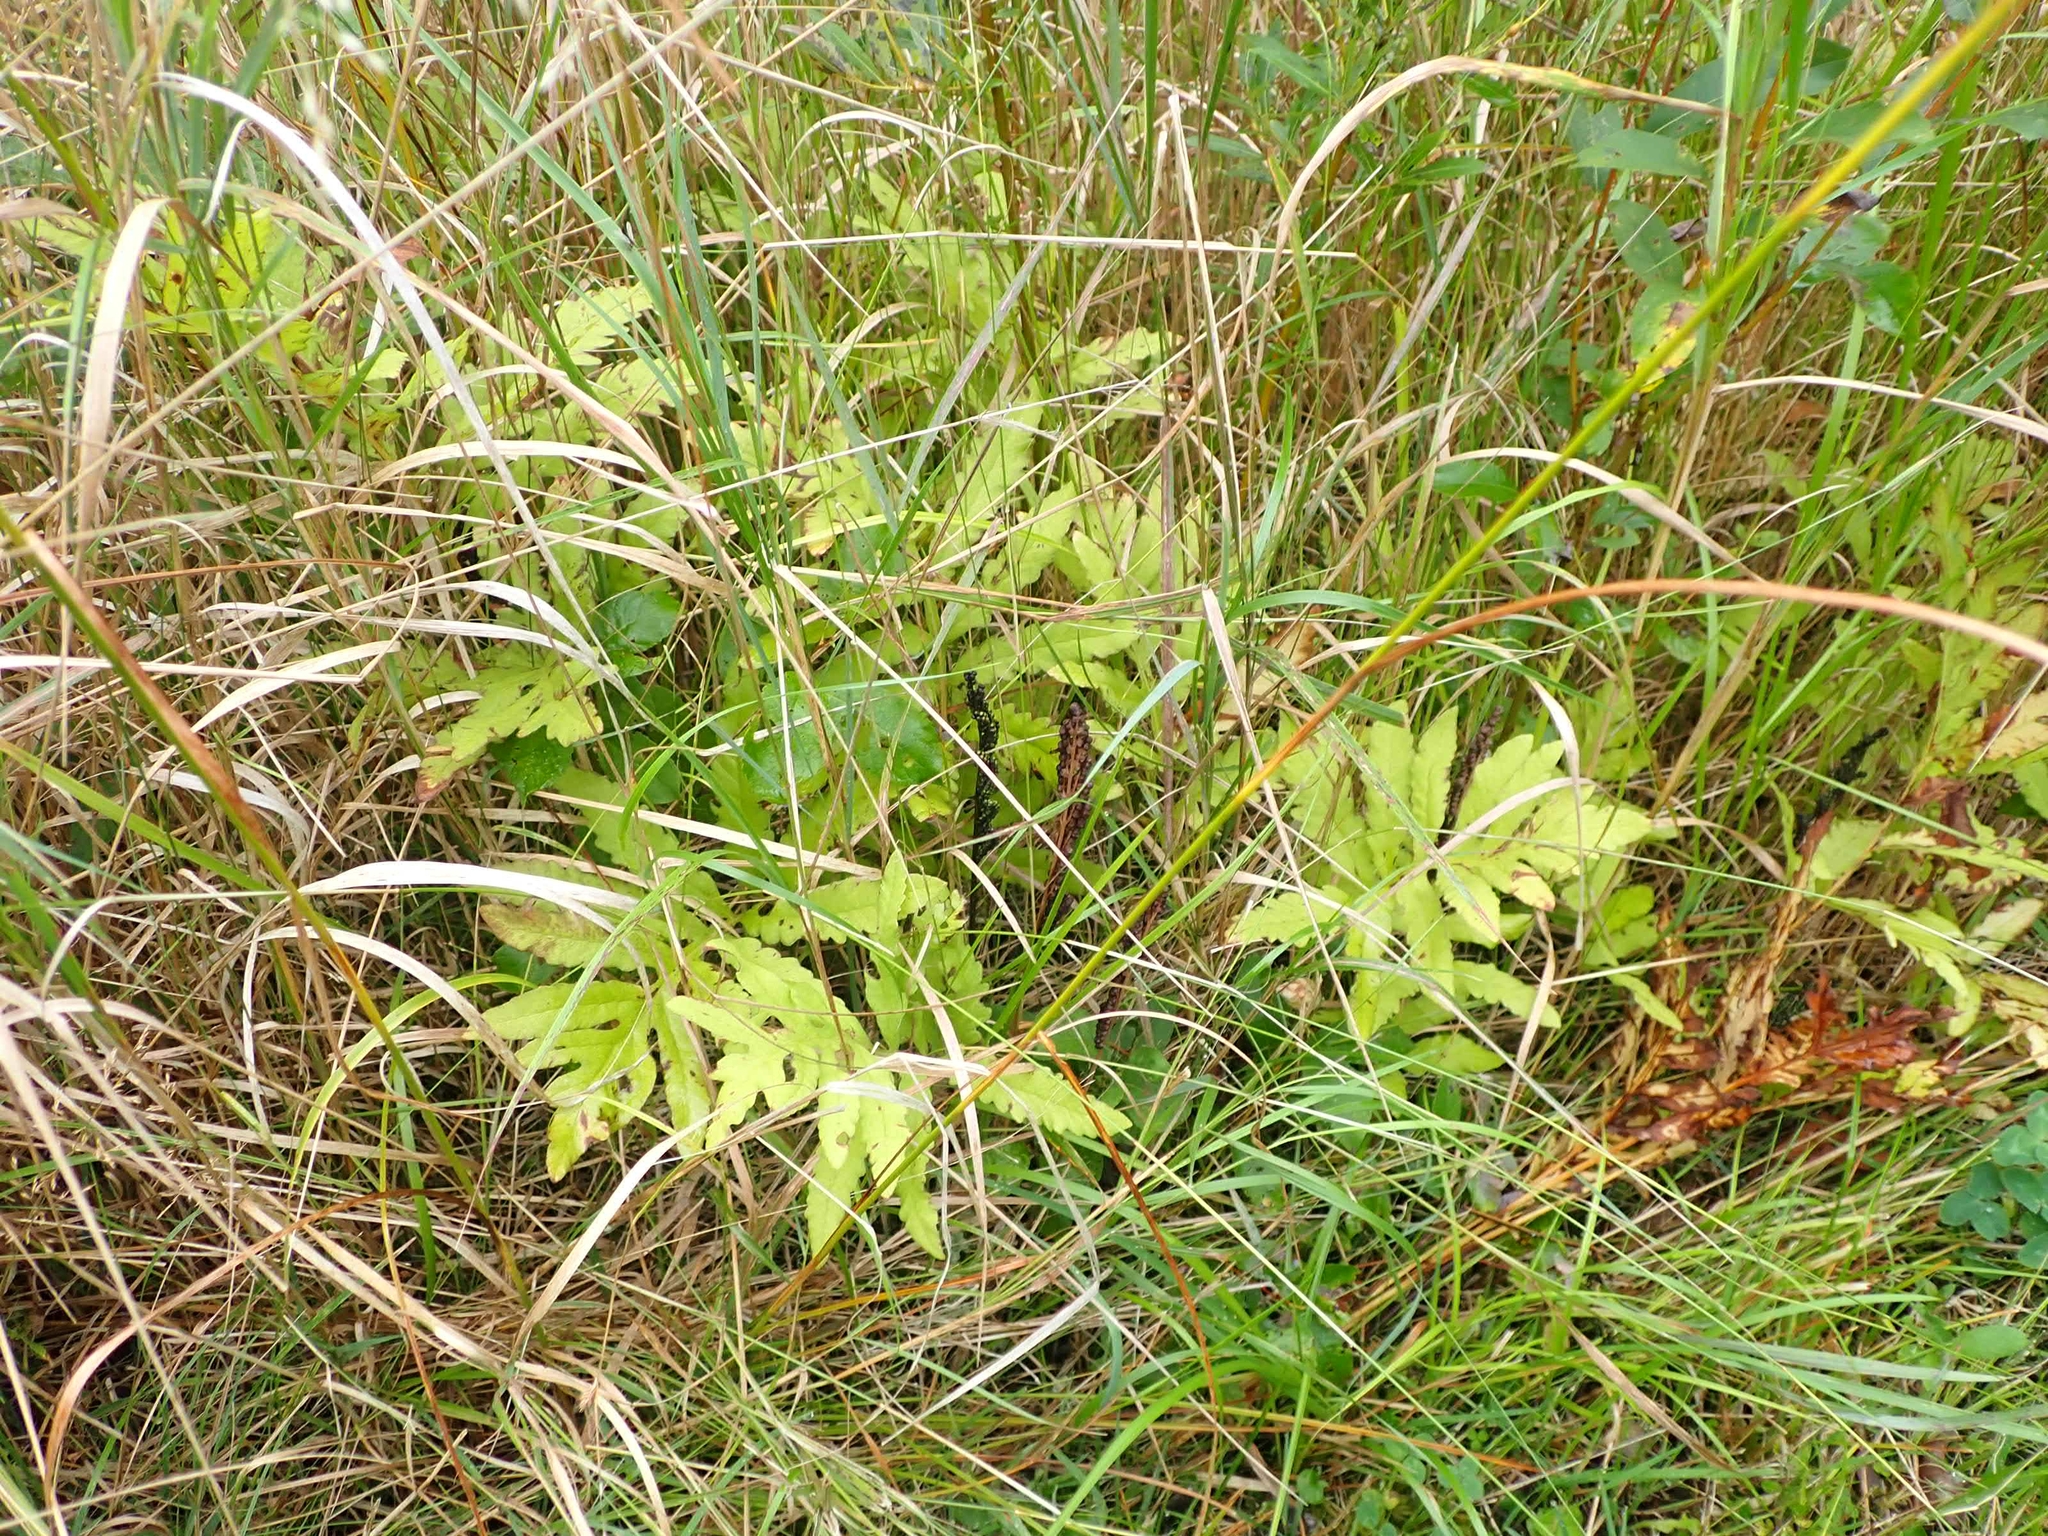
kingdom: Plantae
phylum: Tracheophyta
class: Polypodiopsida
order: Polypodiales
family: Onocleaceae
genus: Onoclea
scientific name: Onoclea sensibilis
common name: Sensitive fern
